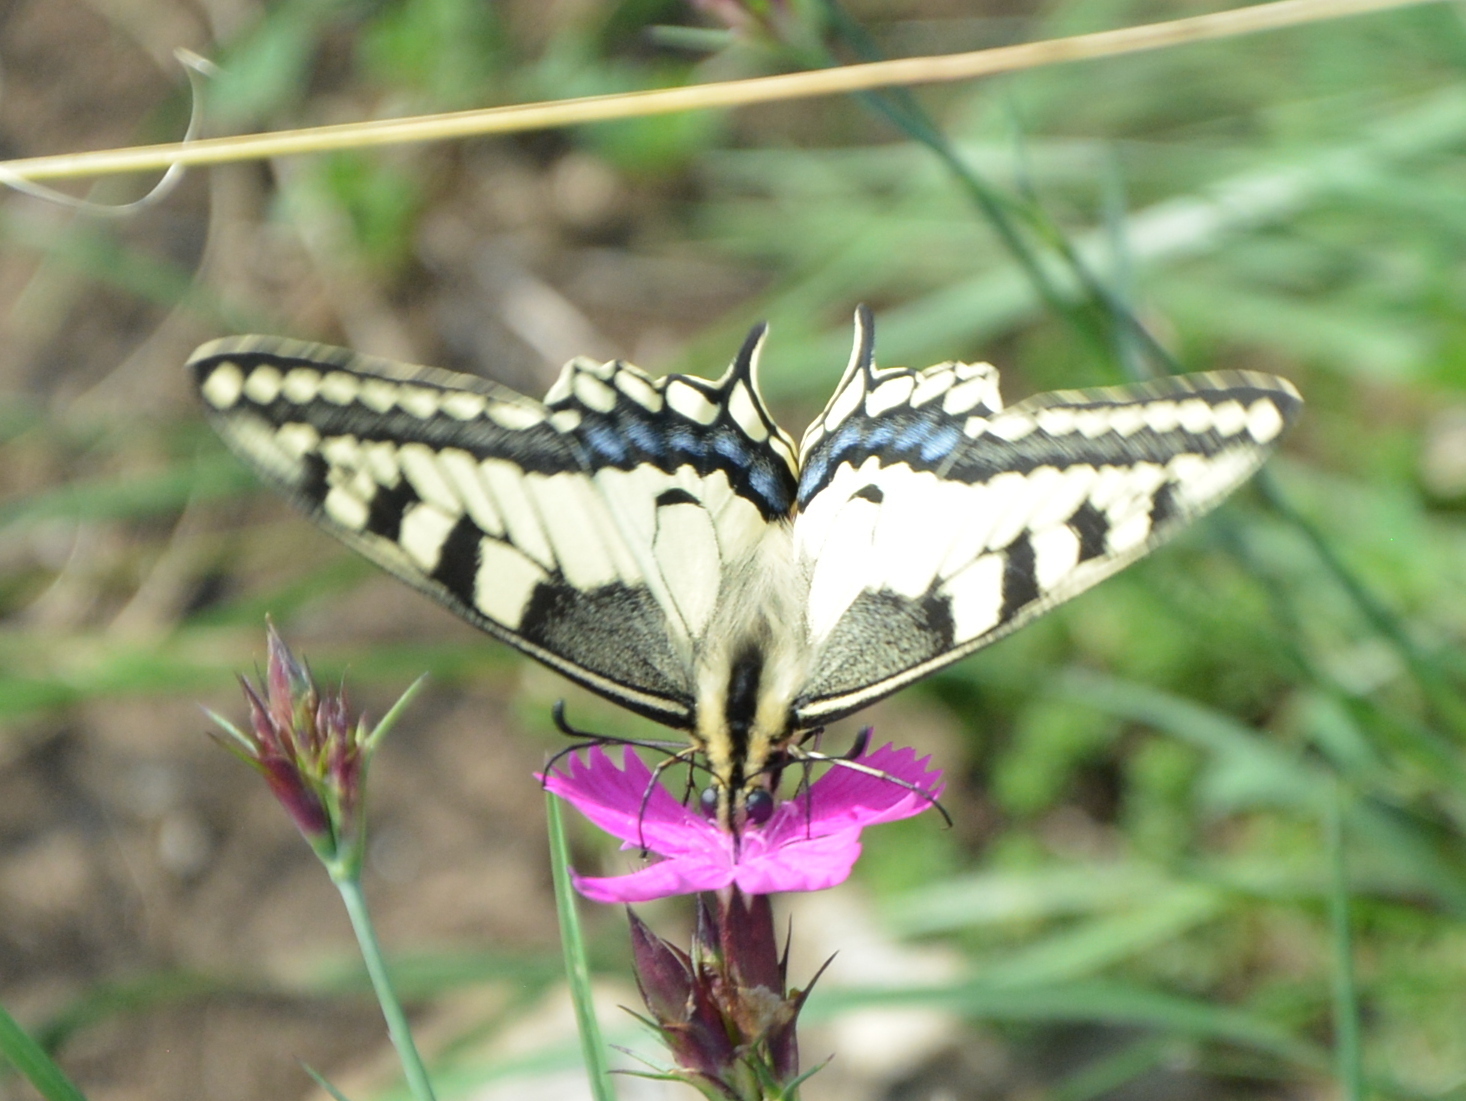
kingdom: Animalia
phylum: Arthropoda
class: Insecta
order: Lepidoptera
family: Papilionidae
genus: Papilio
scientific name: Papilio machaon
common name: Swallowtail
